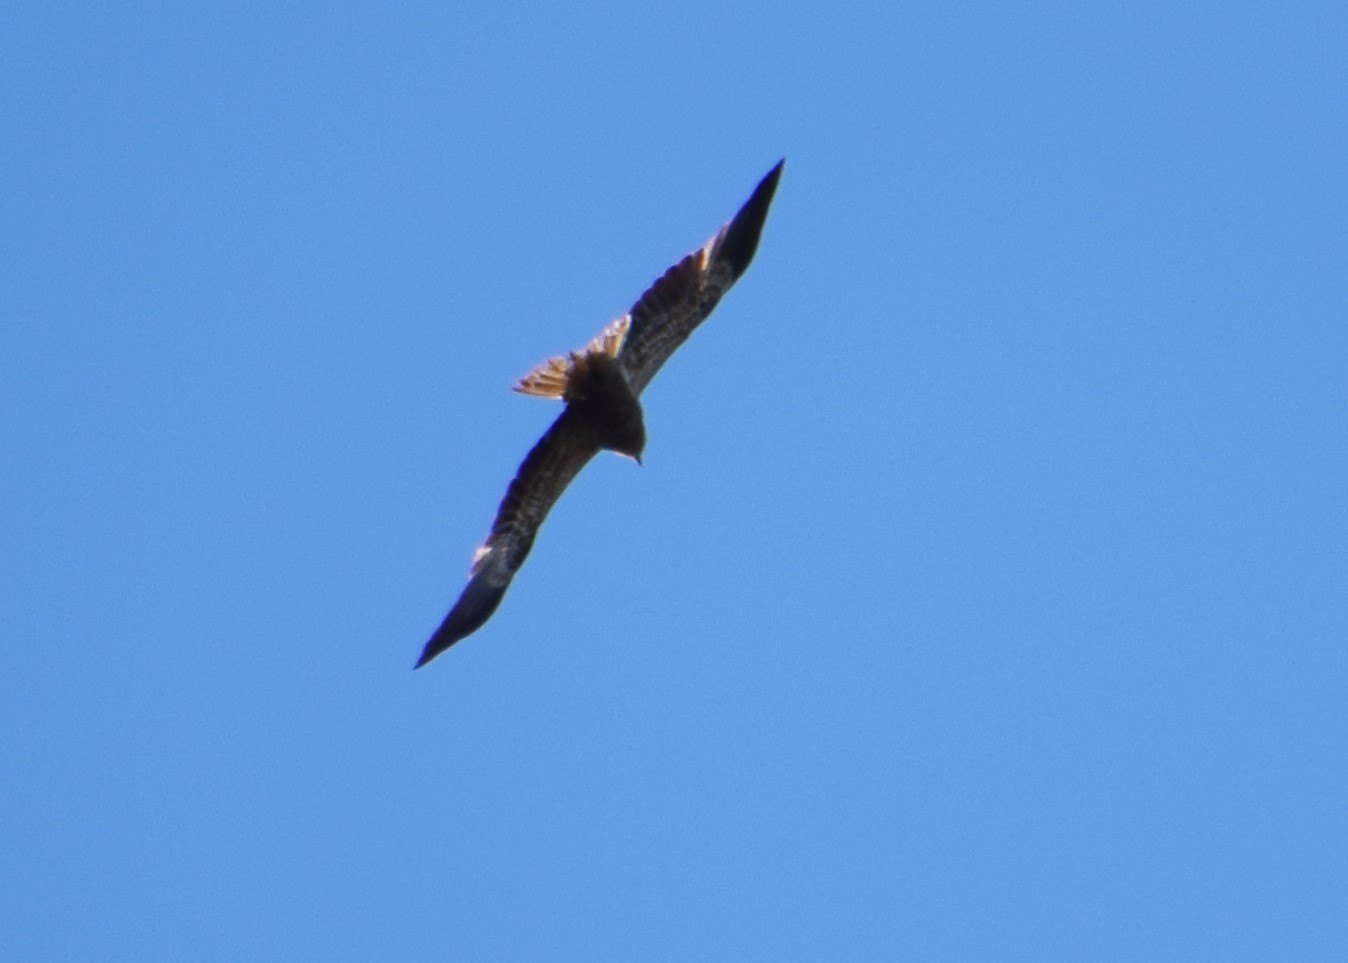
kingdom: Animalia
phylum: Chordata
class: Aves
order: Accipitriformes
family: Accipitridae
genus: Haliastur
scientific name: Haliastur sphenurus
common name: Whistling kite
